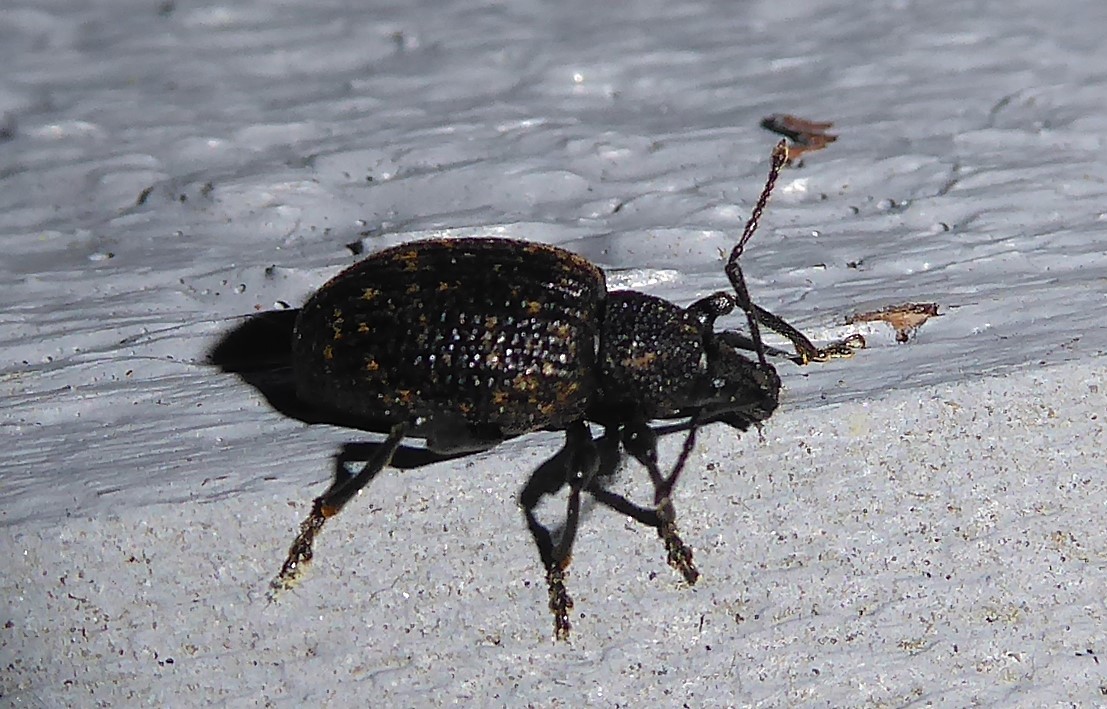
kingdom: Animalia
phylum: Arthropoda
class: Insecta
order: Coleoptera
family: Curculionidae
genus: Otiorhynchus
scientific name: Otiorhynchus sulcatus
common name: Black vine weevil
